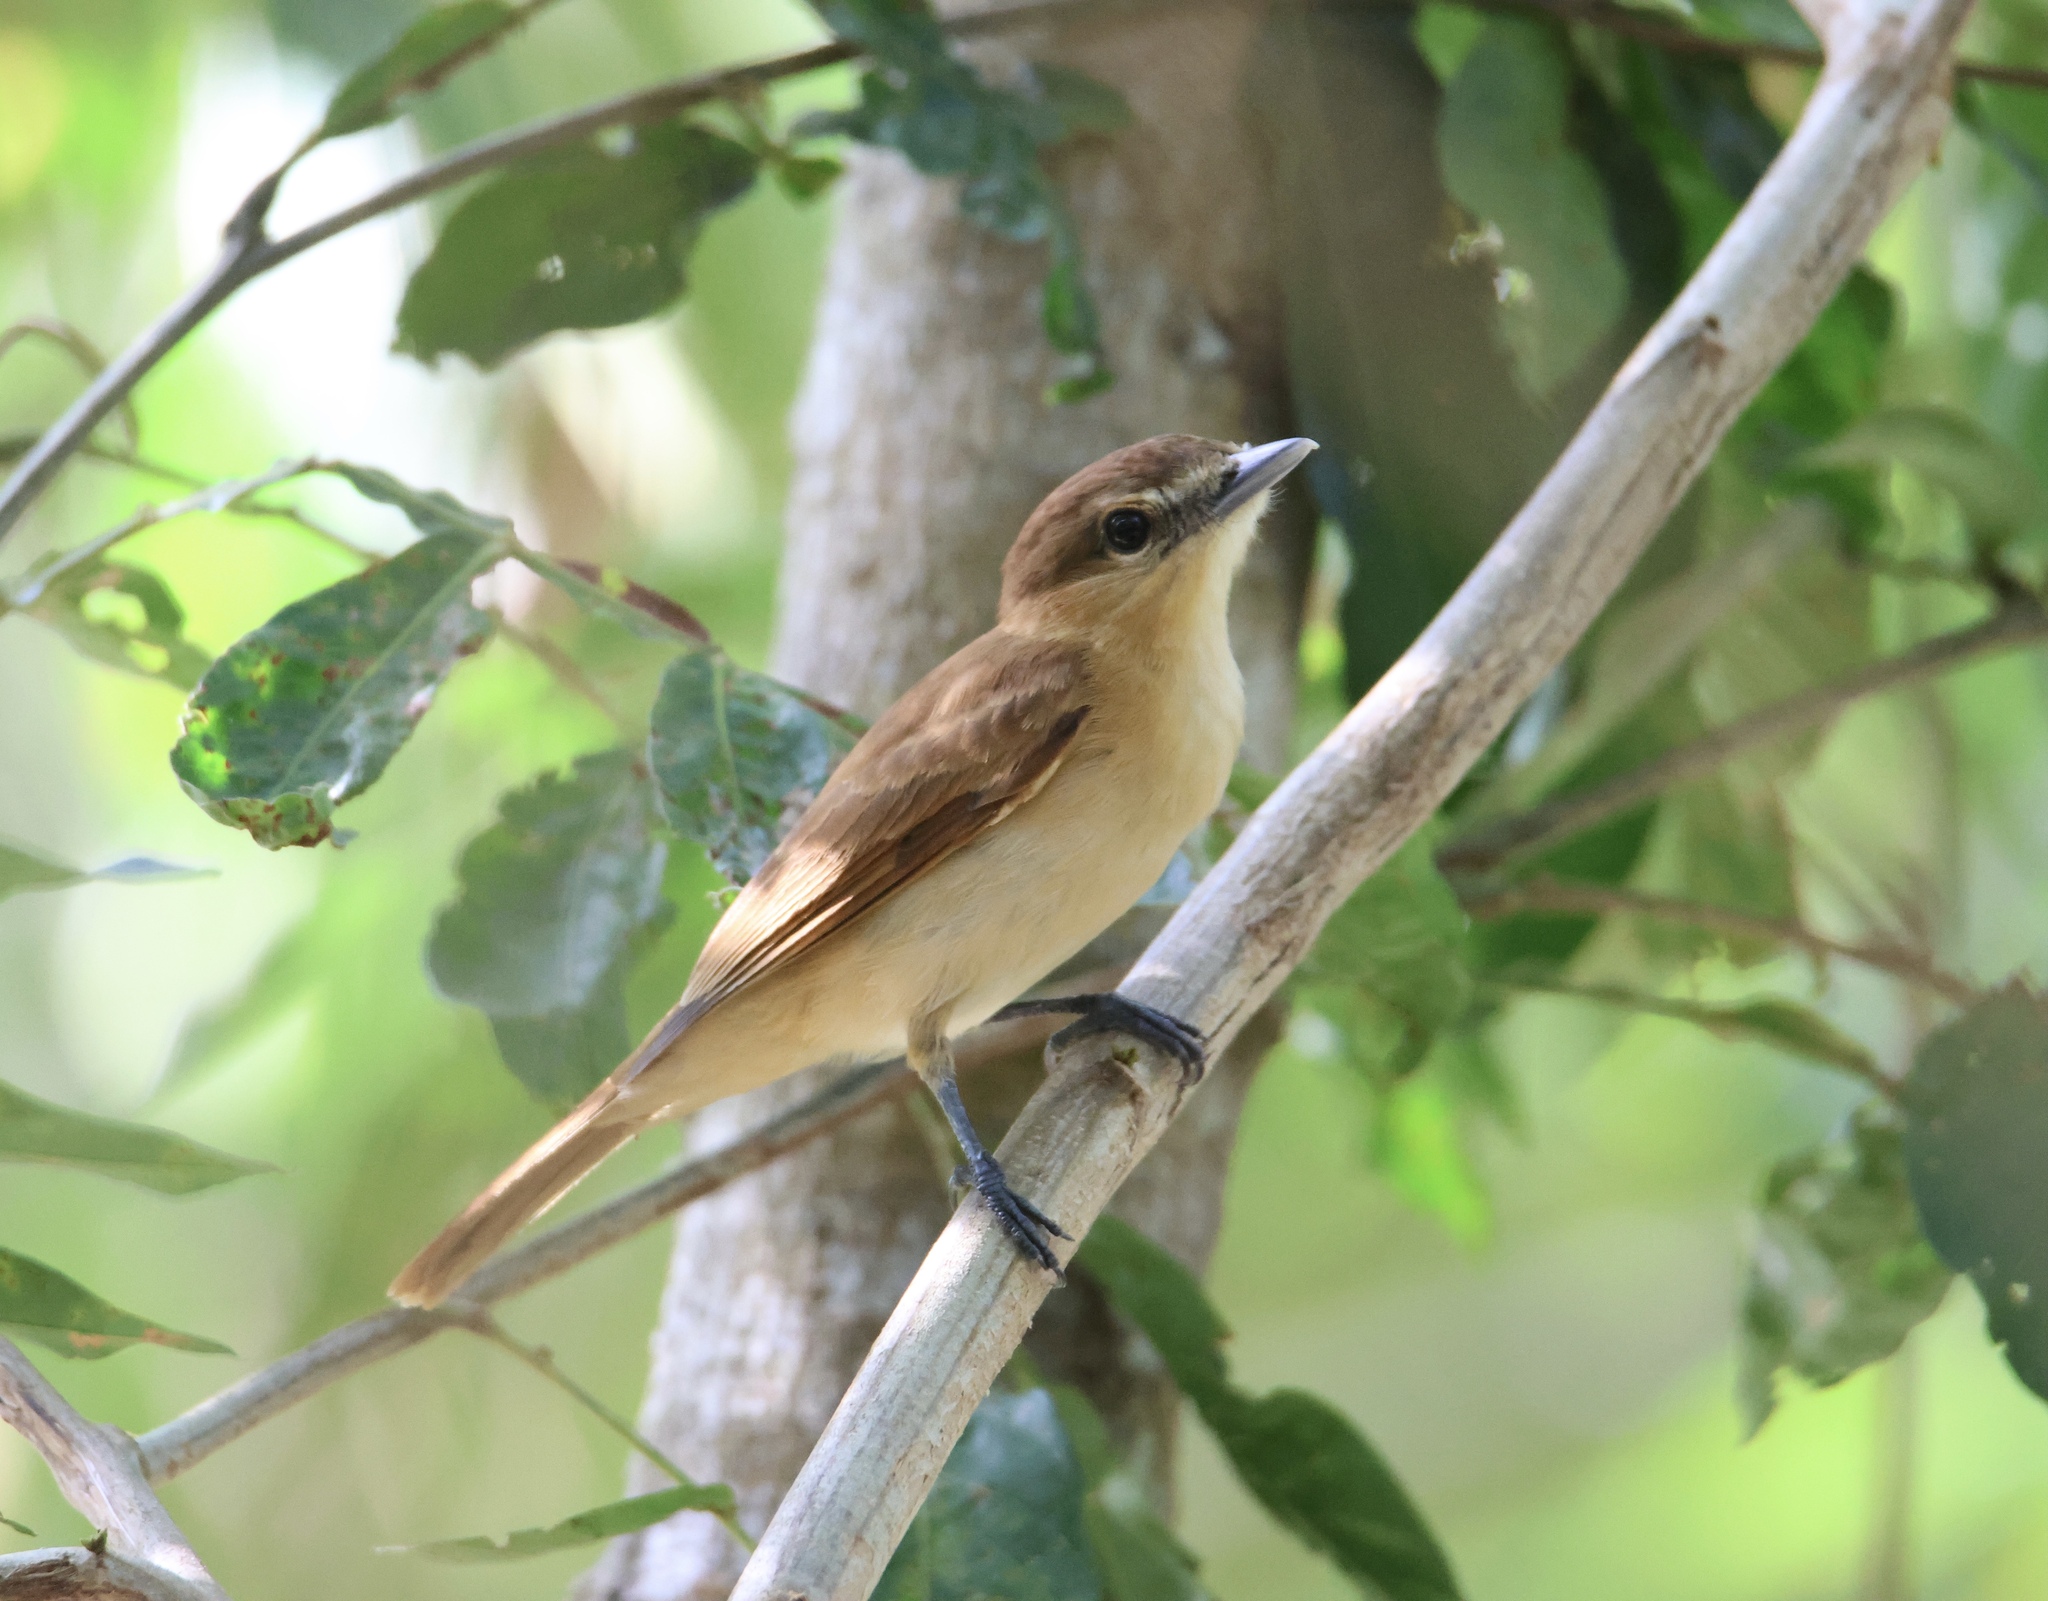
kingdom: Animalia
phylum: Chordata
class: Aves
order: Passeriformes
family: Cotingidae
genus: Pachyramphus
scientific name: Pachyramphus cinnamomeus
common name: Cinnamon becard
